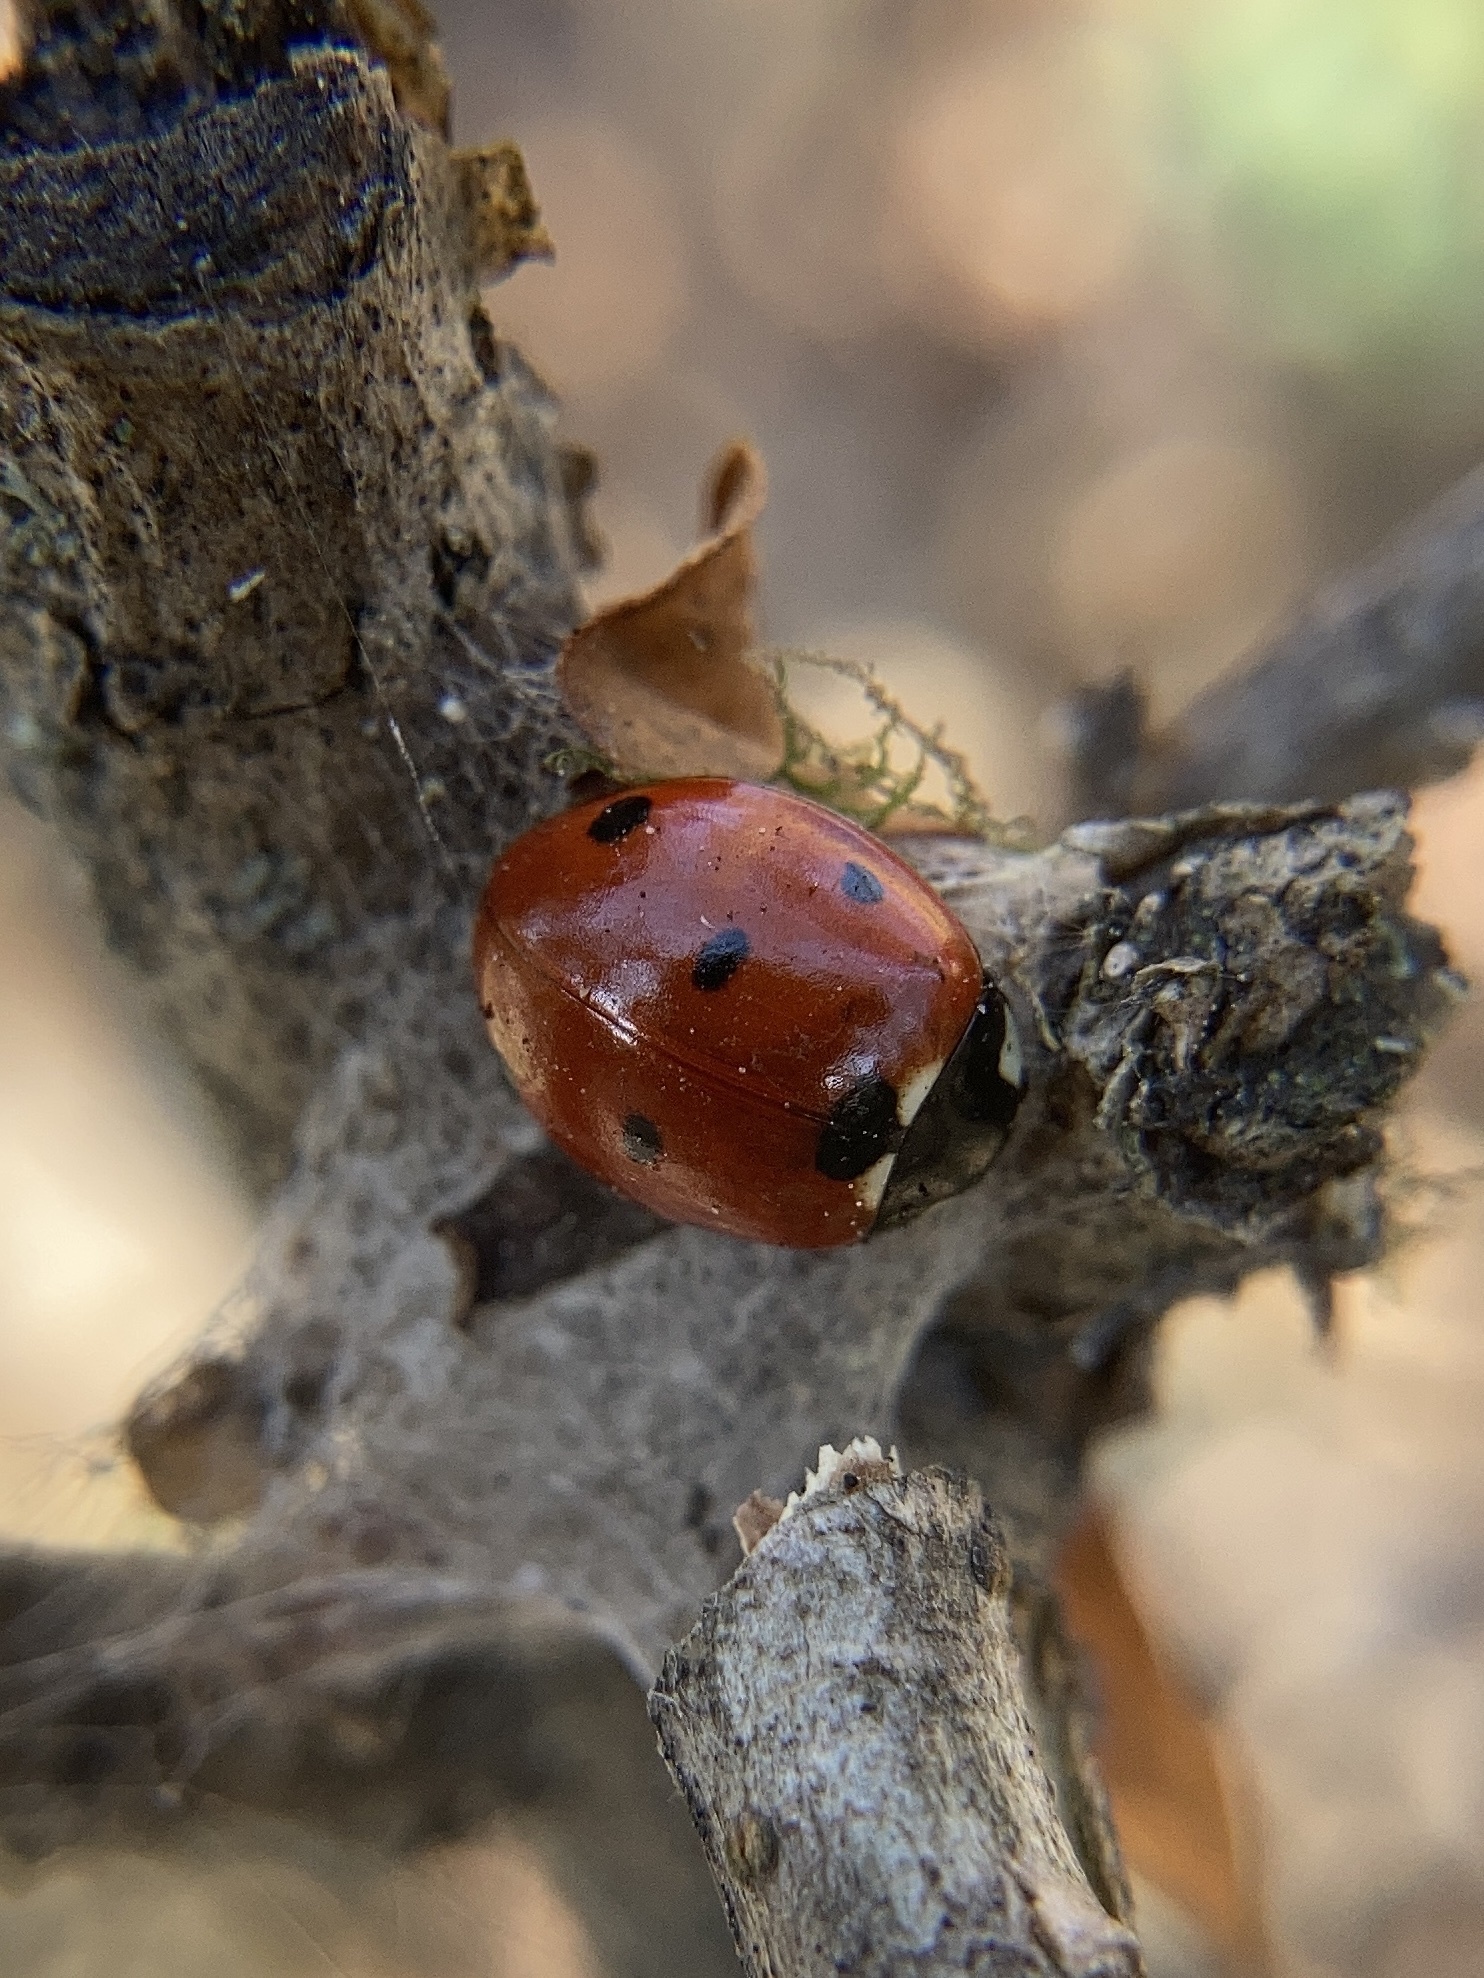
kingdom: Animalia
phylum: Arthropoda
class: Insecta
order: Coleoptera
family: Coccinellidae
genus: Coccinella
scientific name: Coccinella septempunctata
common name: Sevenspotted lady beetle
